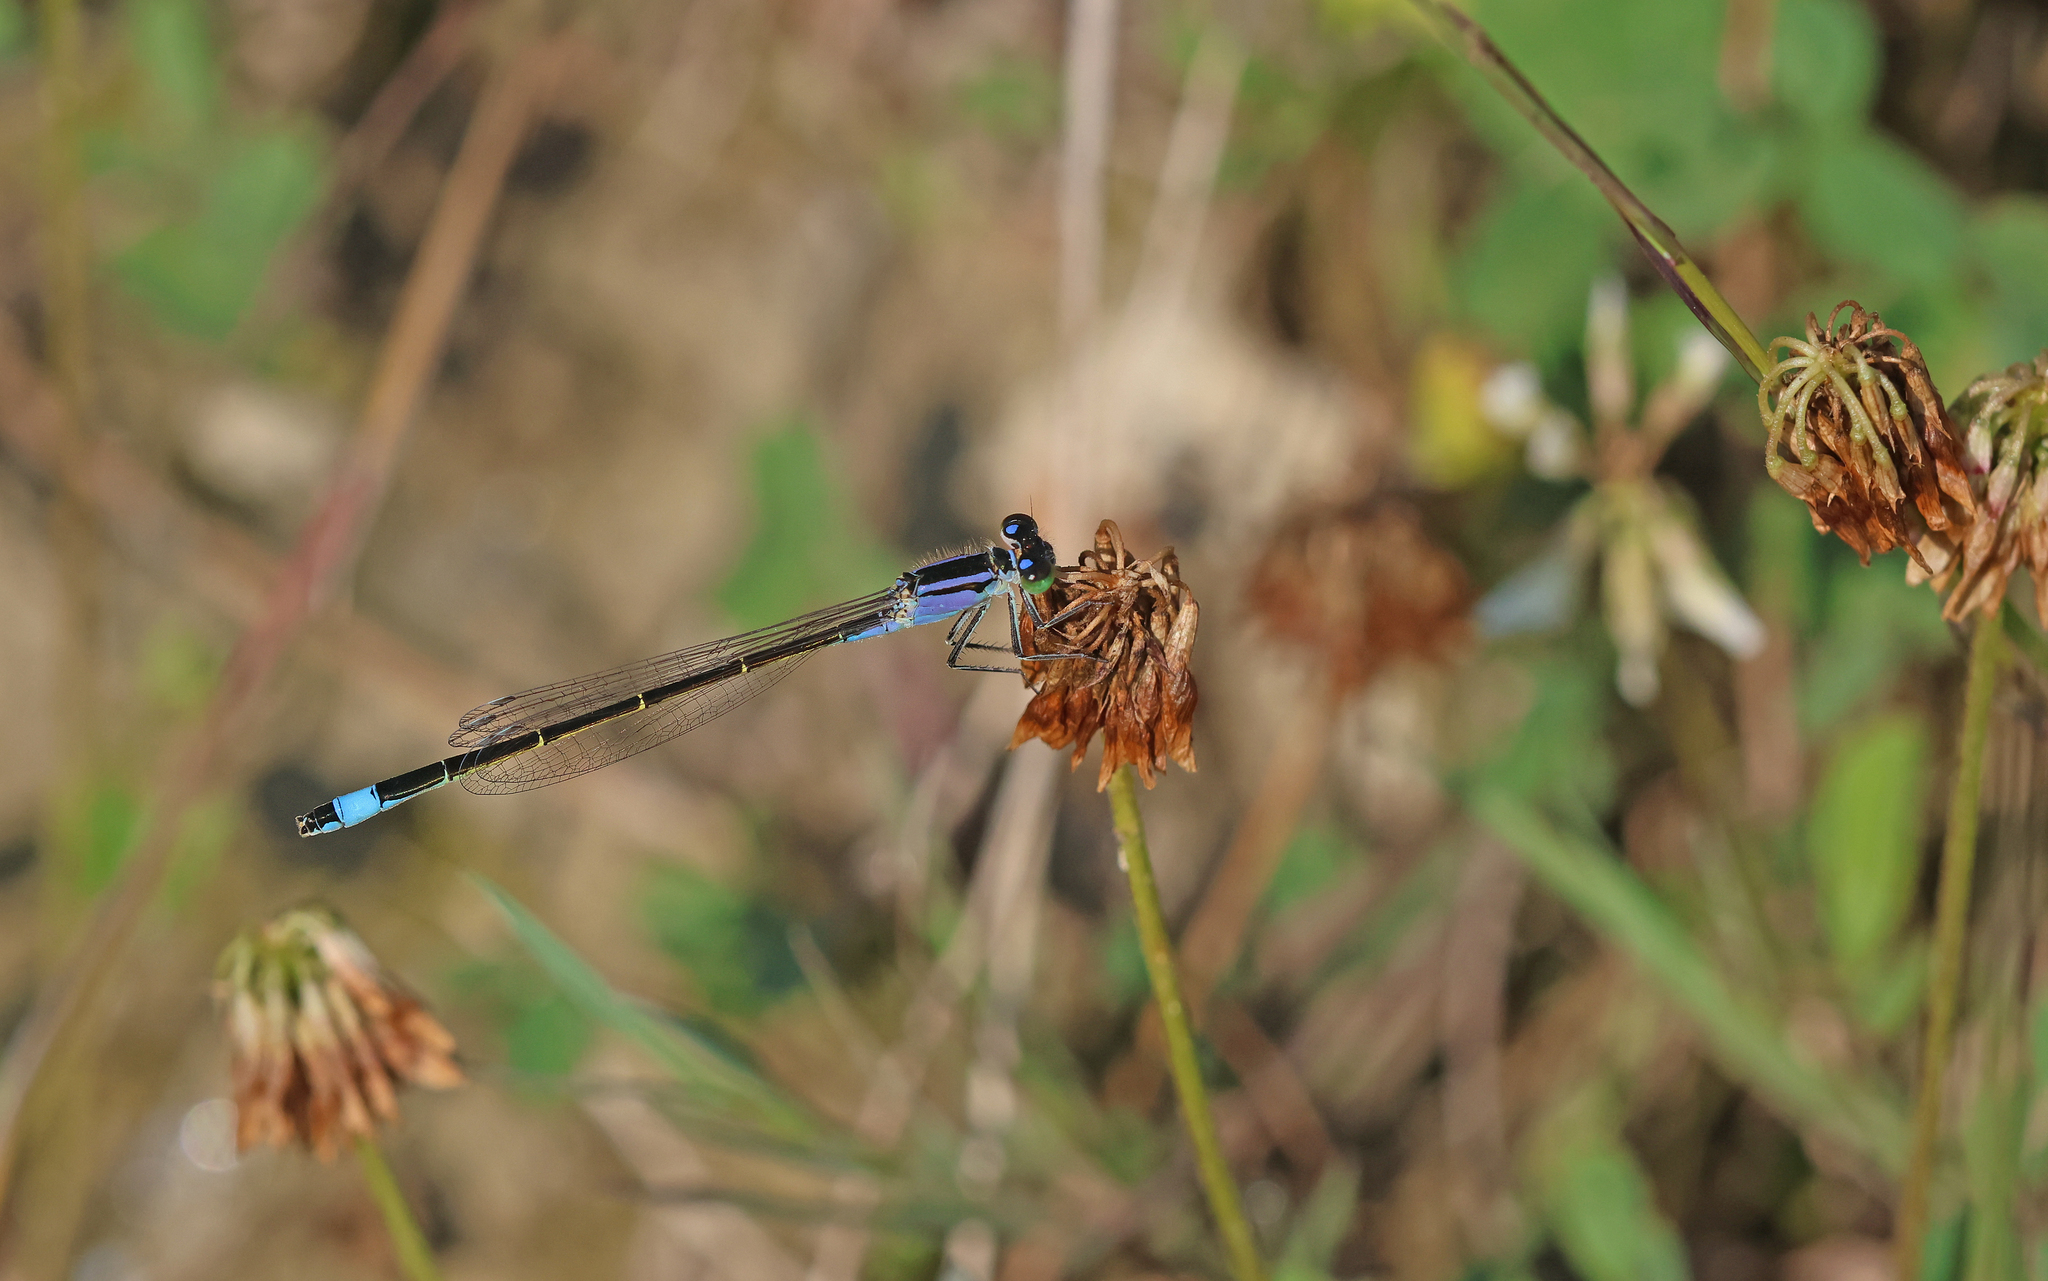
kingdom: Animalia
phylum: Arthropoda
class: Insecta
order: Odonata
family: Coenagrionidae
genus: Ischnura
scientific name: Ischnura elegans
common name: Blue-tailed damselfly
